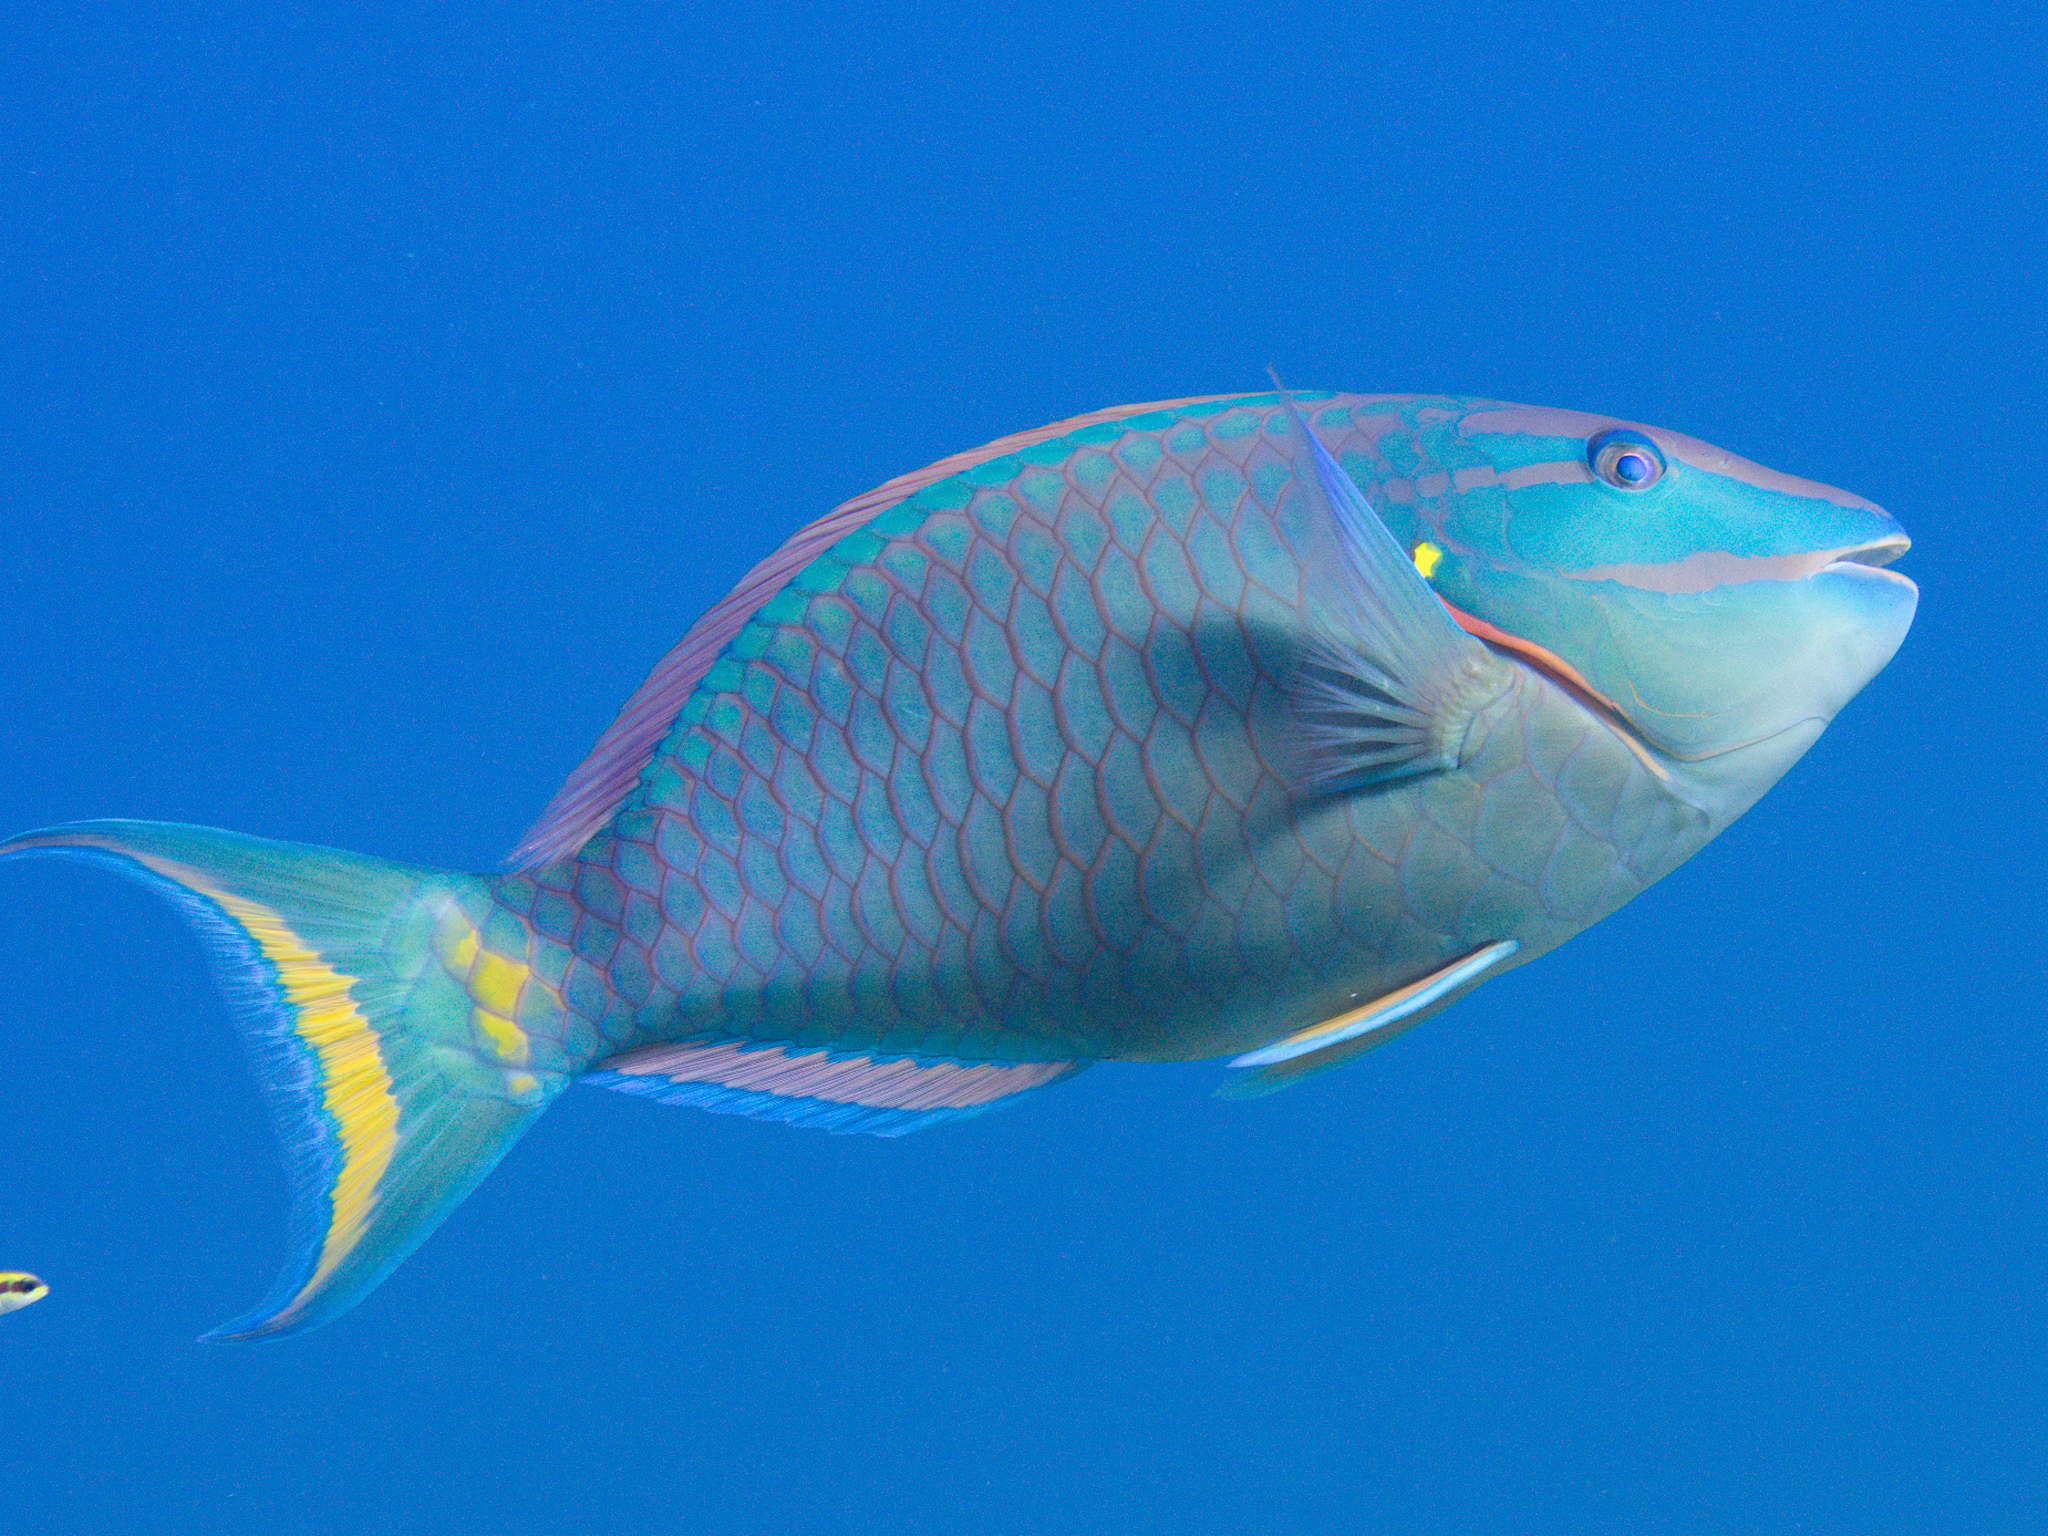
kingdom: Animalia
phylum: Chordata
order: Perciformes
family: Scaridae
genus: Sparisoma
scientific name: Sparisoma viride
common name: Stoplight parrotfish
